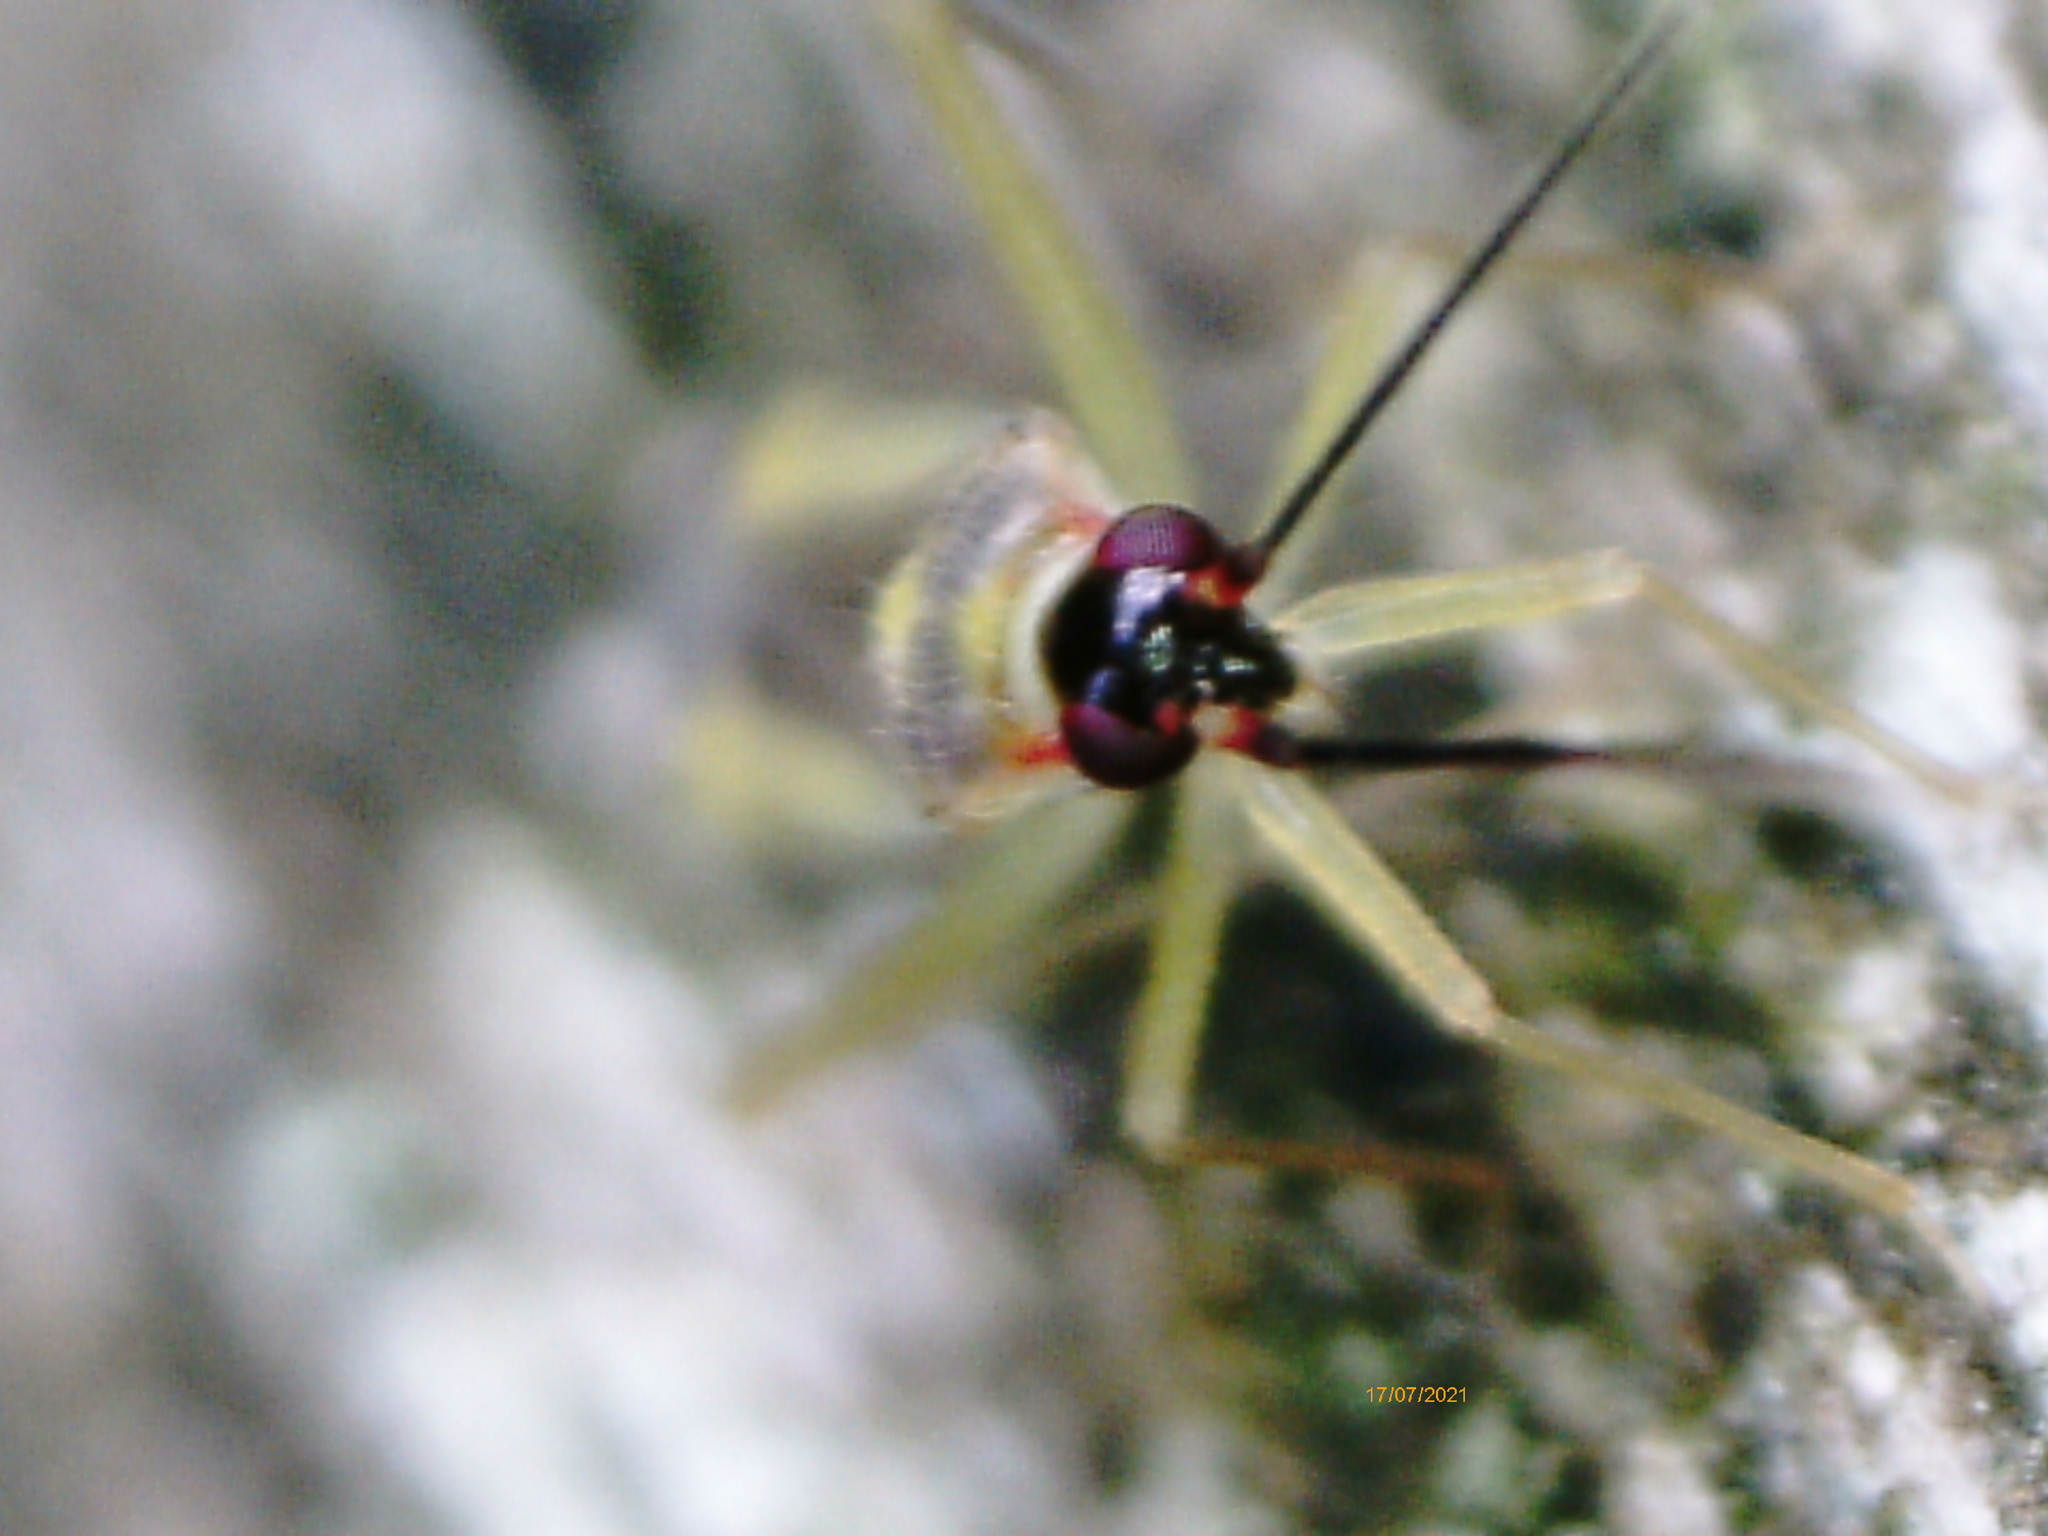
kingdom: Animalia
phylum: Arthropoda
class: Insecta
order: Hemiptera
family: Miridae
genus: Campyloneura
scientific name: Campyloneura virgula
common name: Predatory bug
